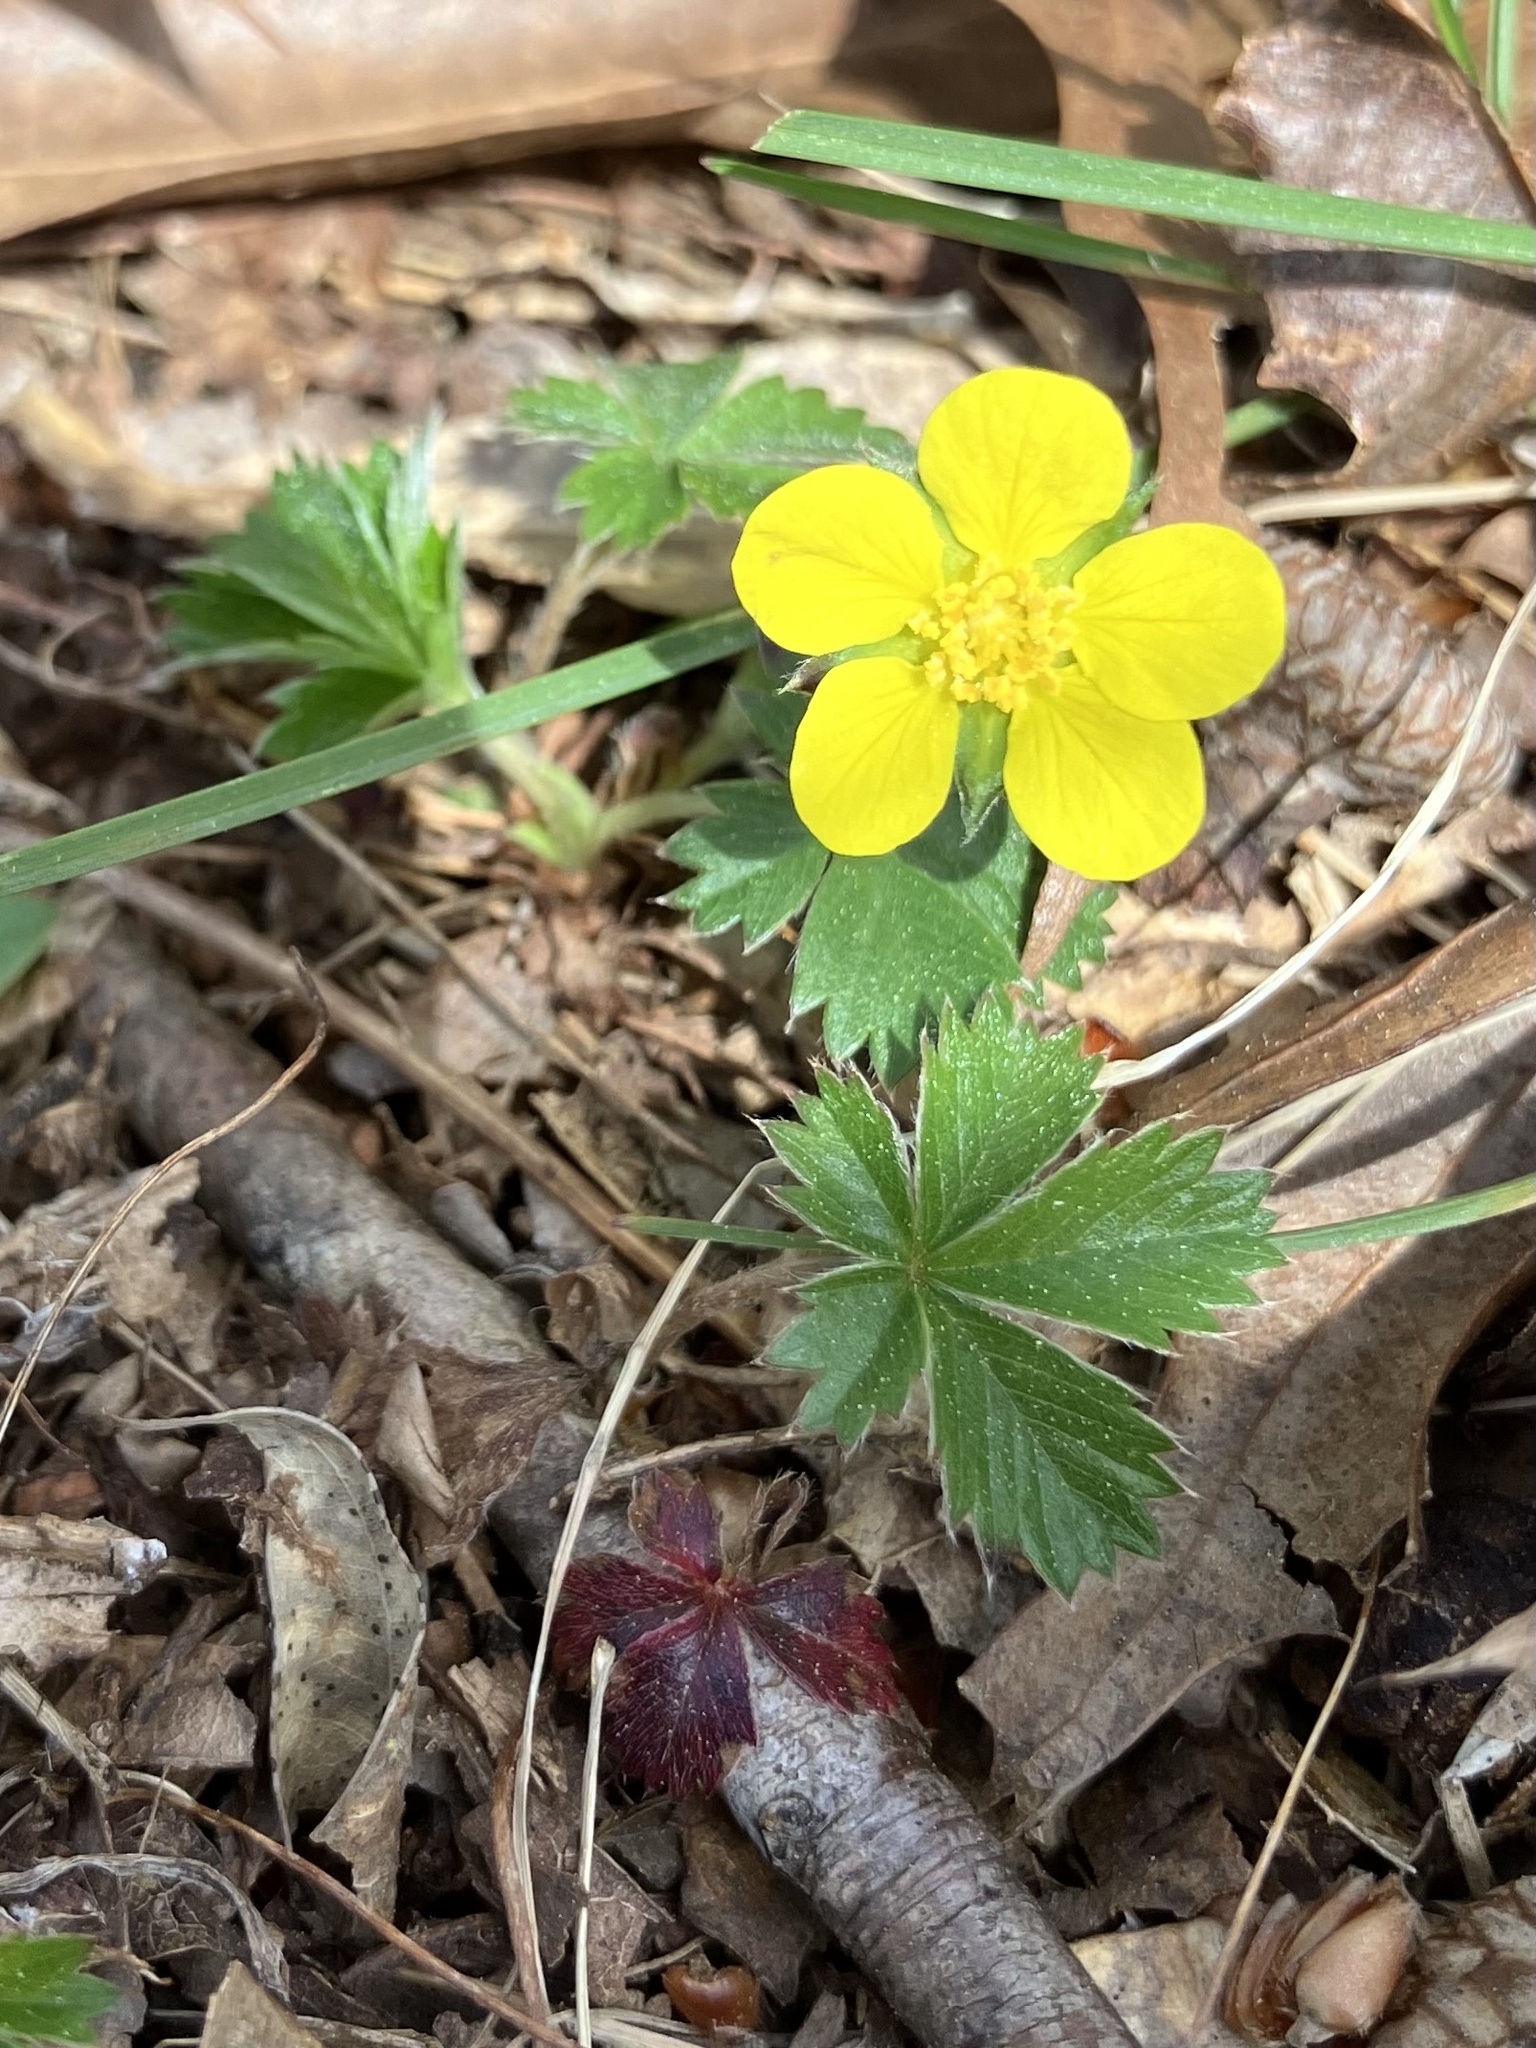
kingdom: Plantae
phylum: Tracheophyta
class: Magnoliopsida
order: Rosales
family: Rosaceae
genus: Potentilla
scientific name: Potentilla canadensis
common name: Canada cinquefoil
